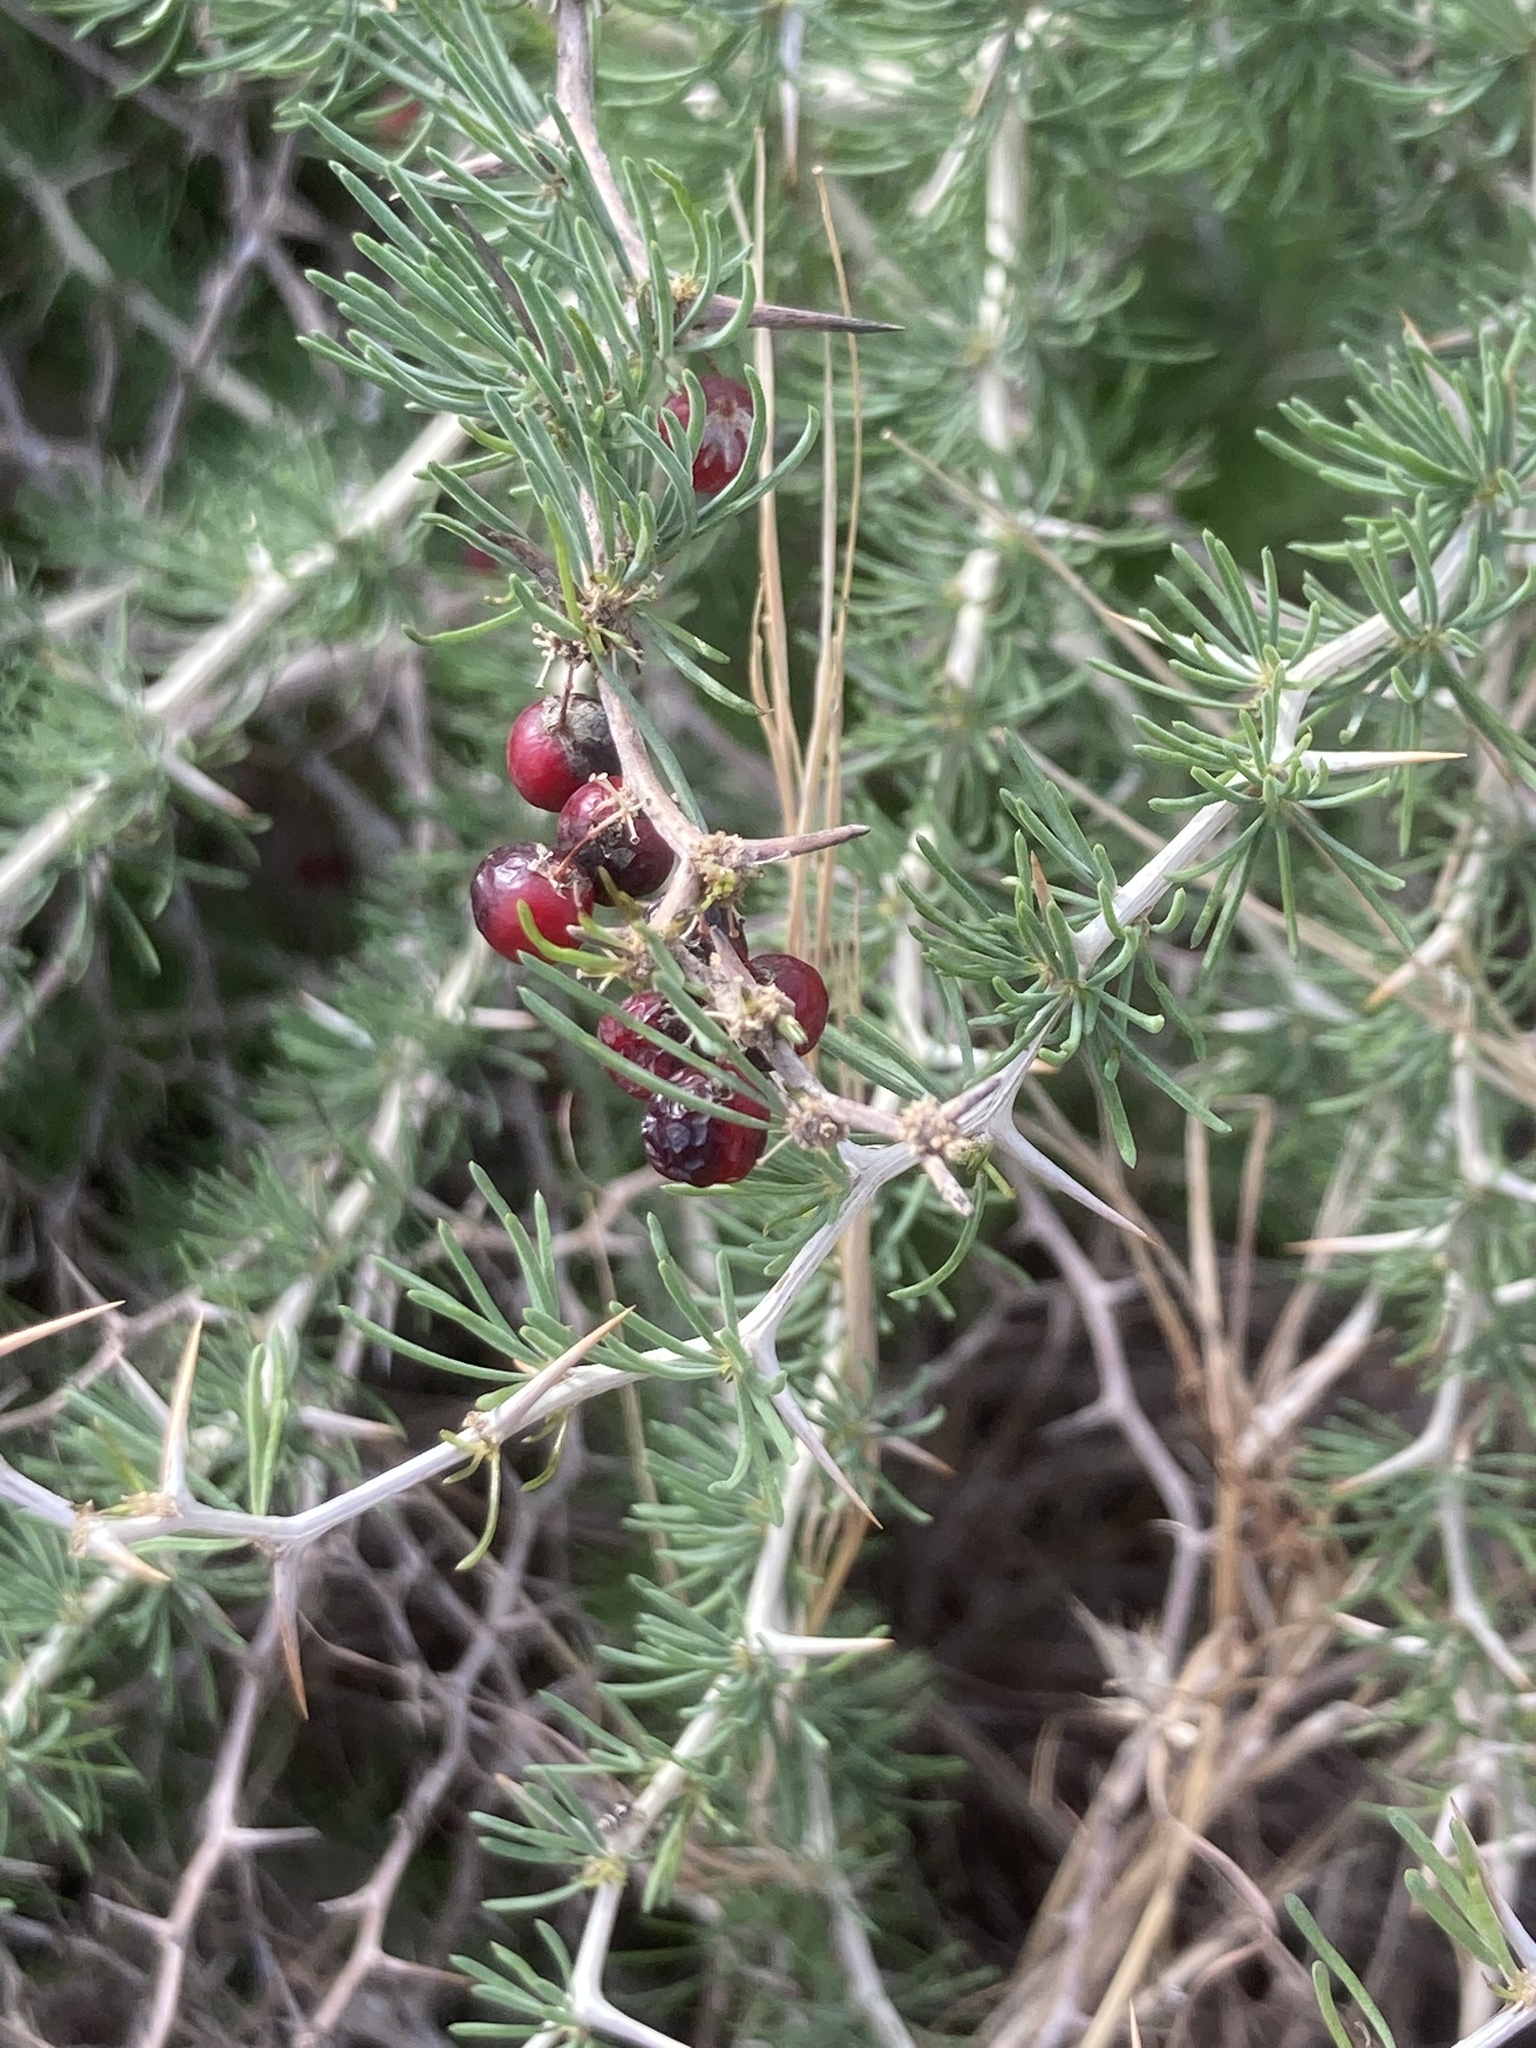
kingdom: Plantae
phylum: Tracheophyta
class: Liliopsida
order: Asparagales
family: Asparagaceae
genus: Asparagus
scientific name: Asparagus albus
